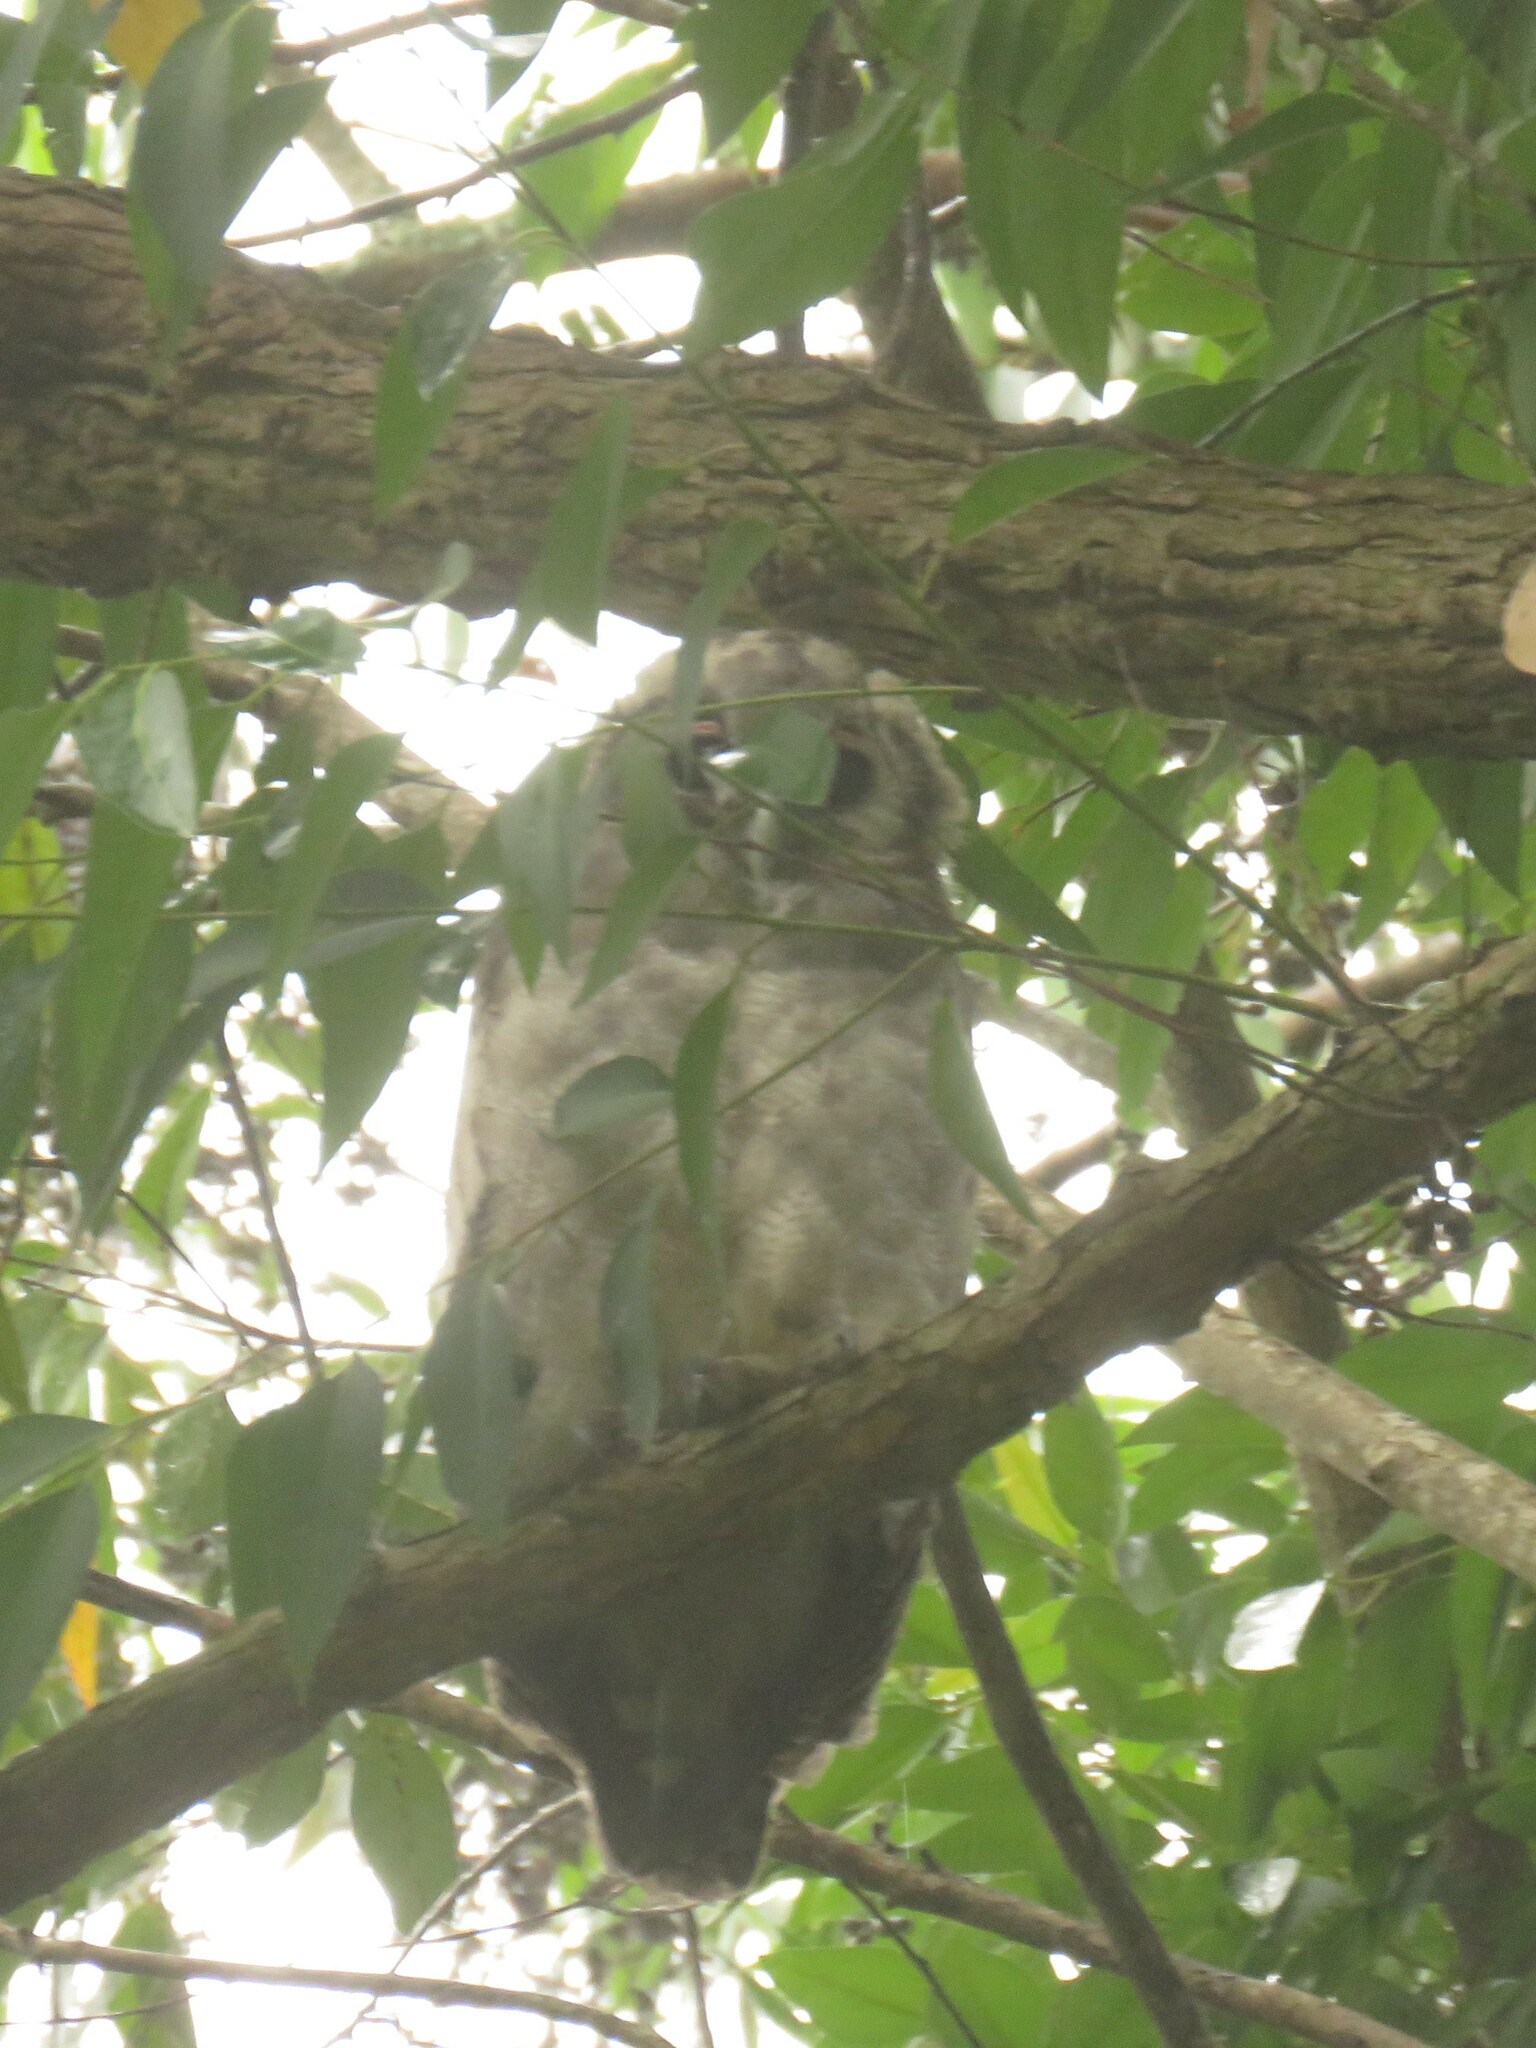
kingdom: Animalia
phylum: Chordata
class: Aves
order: Strigiformes
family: Strigidae
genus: Bubo
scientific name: Bubo lacteus
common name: Verreaux's eagle-owl
